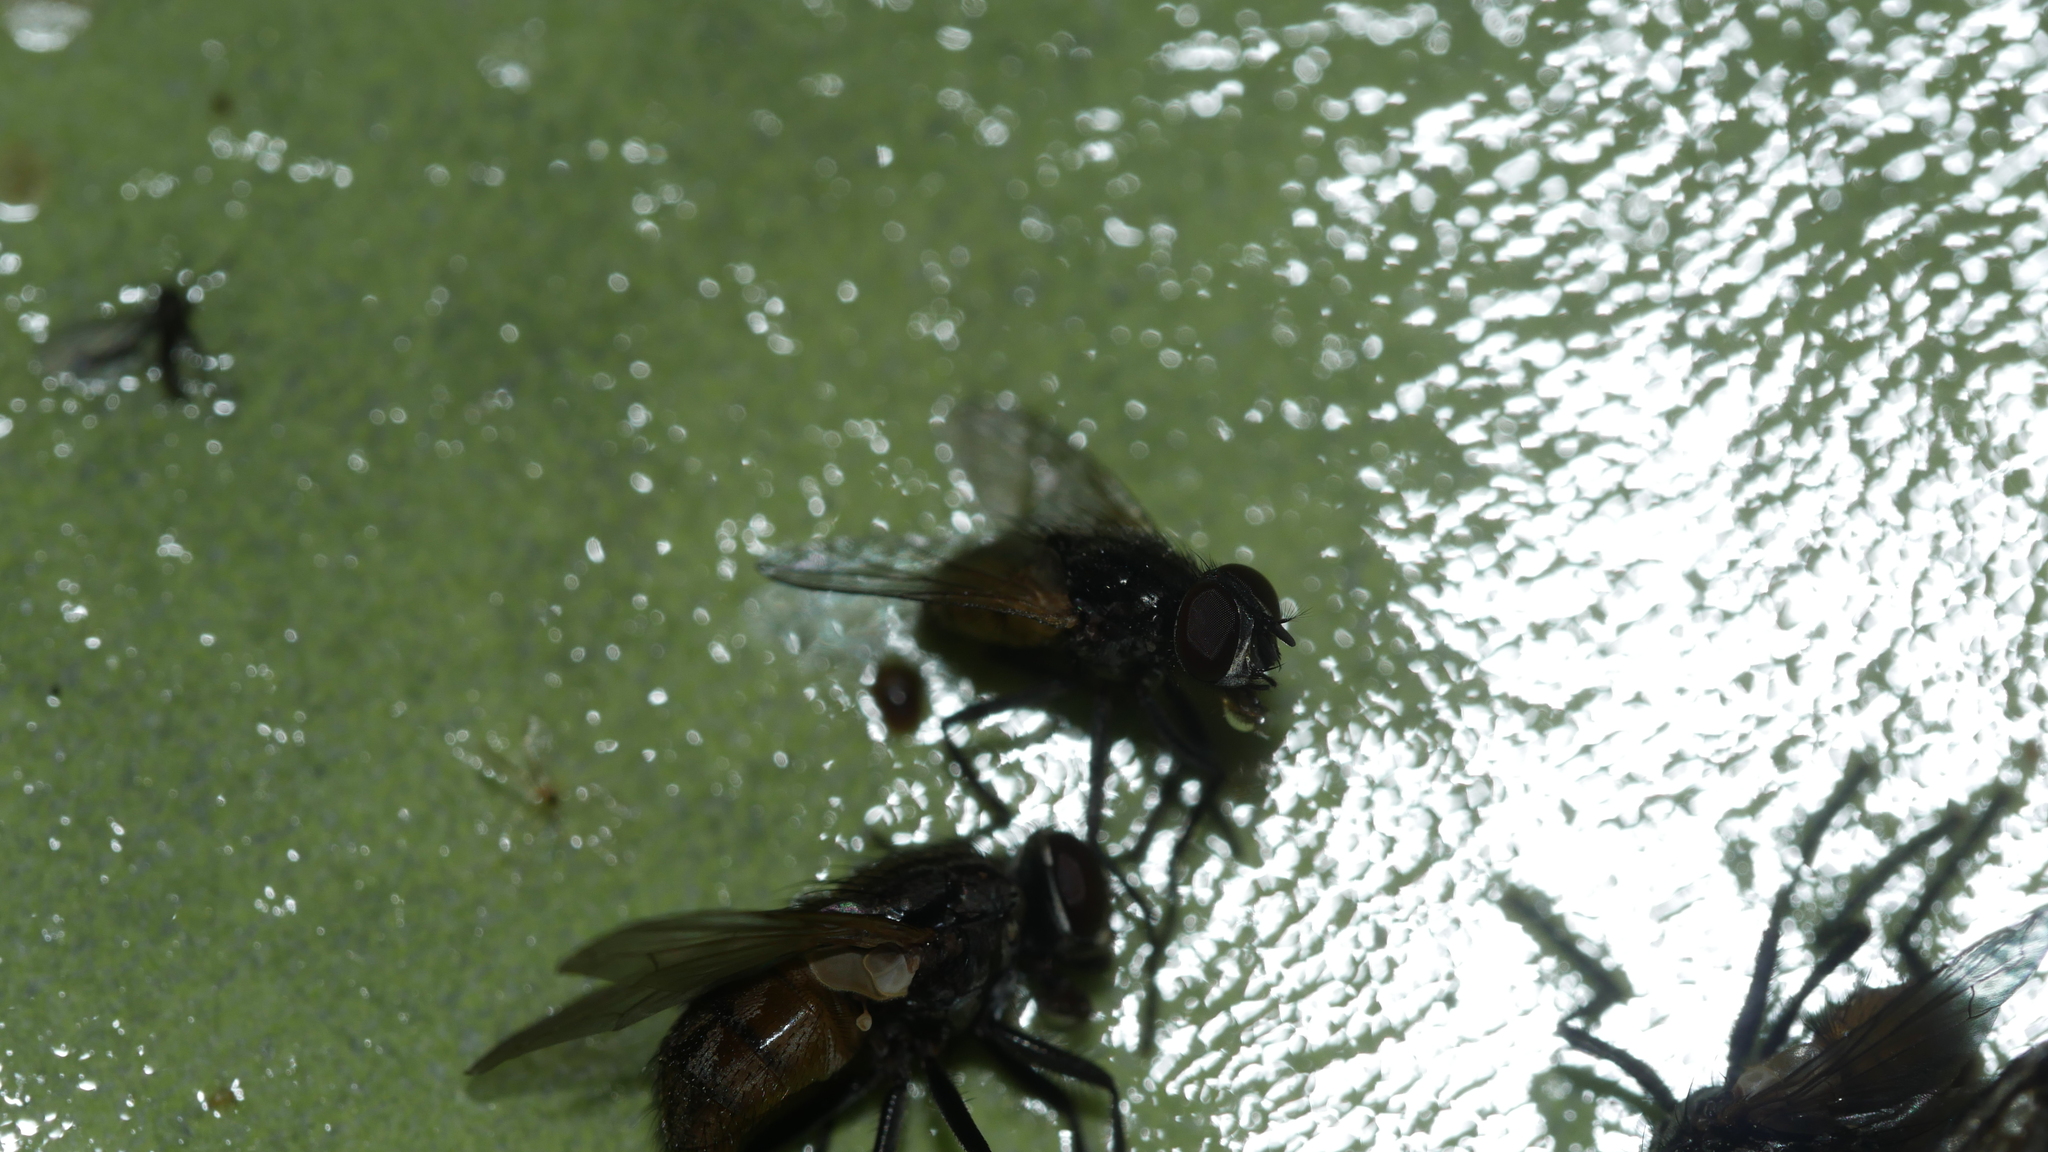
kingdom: Animalia
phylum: Arthropoda
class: Insecta
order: Diptera
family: Muscidae
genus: Musca
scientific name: Musca domestica
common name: House fly
